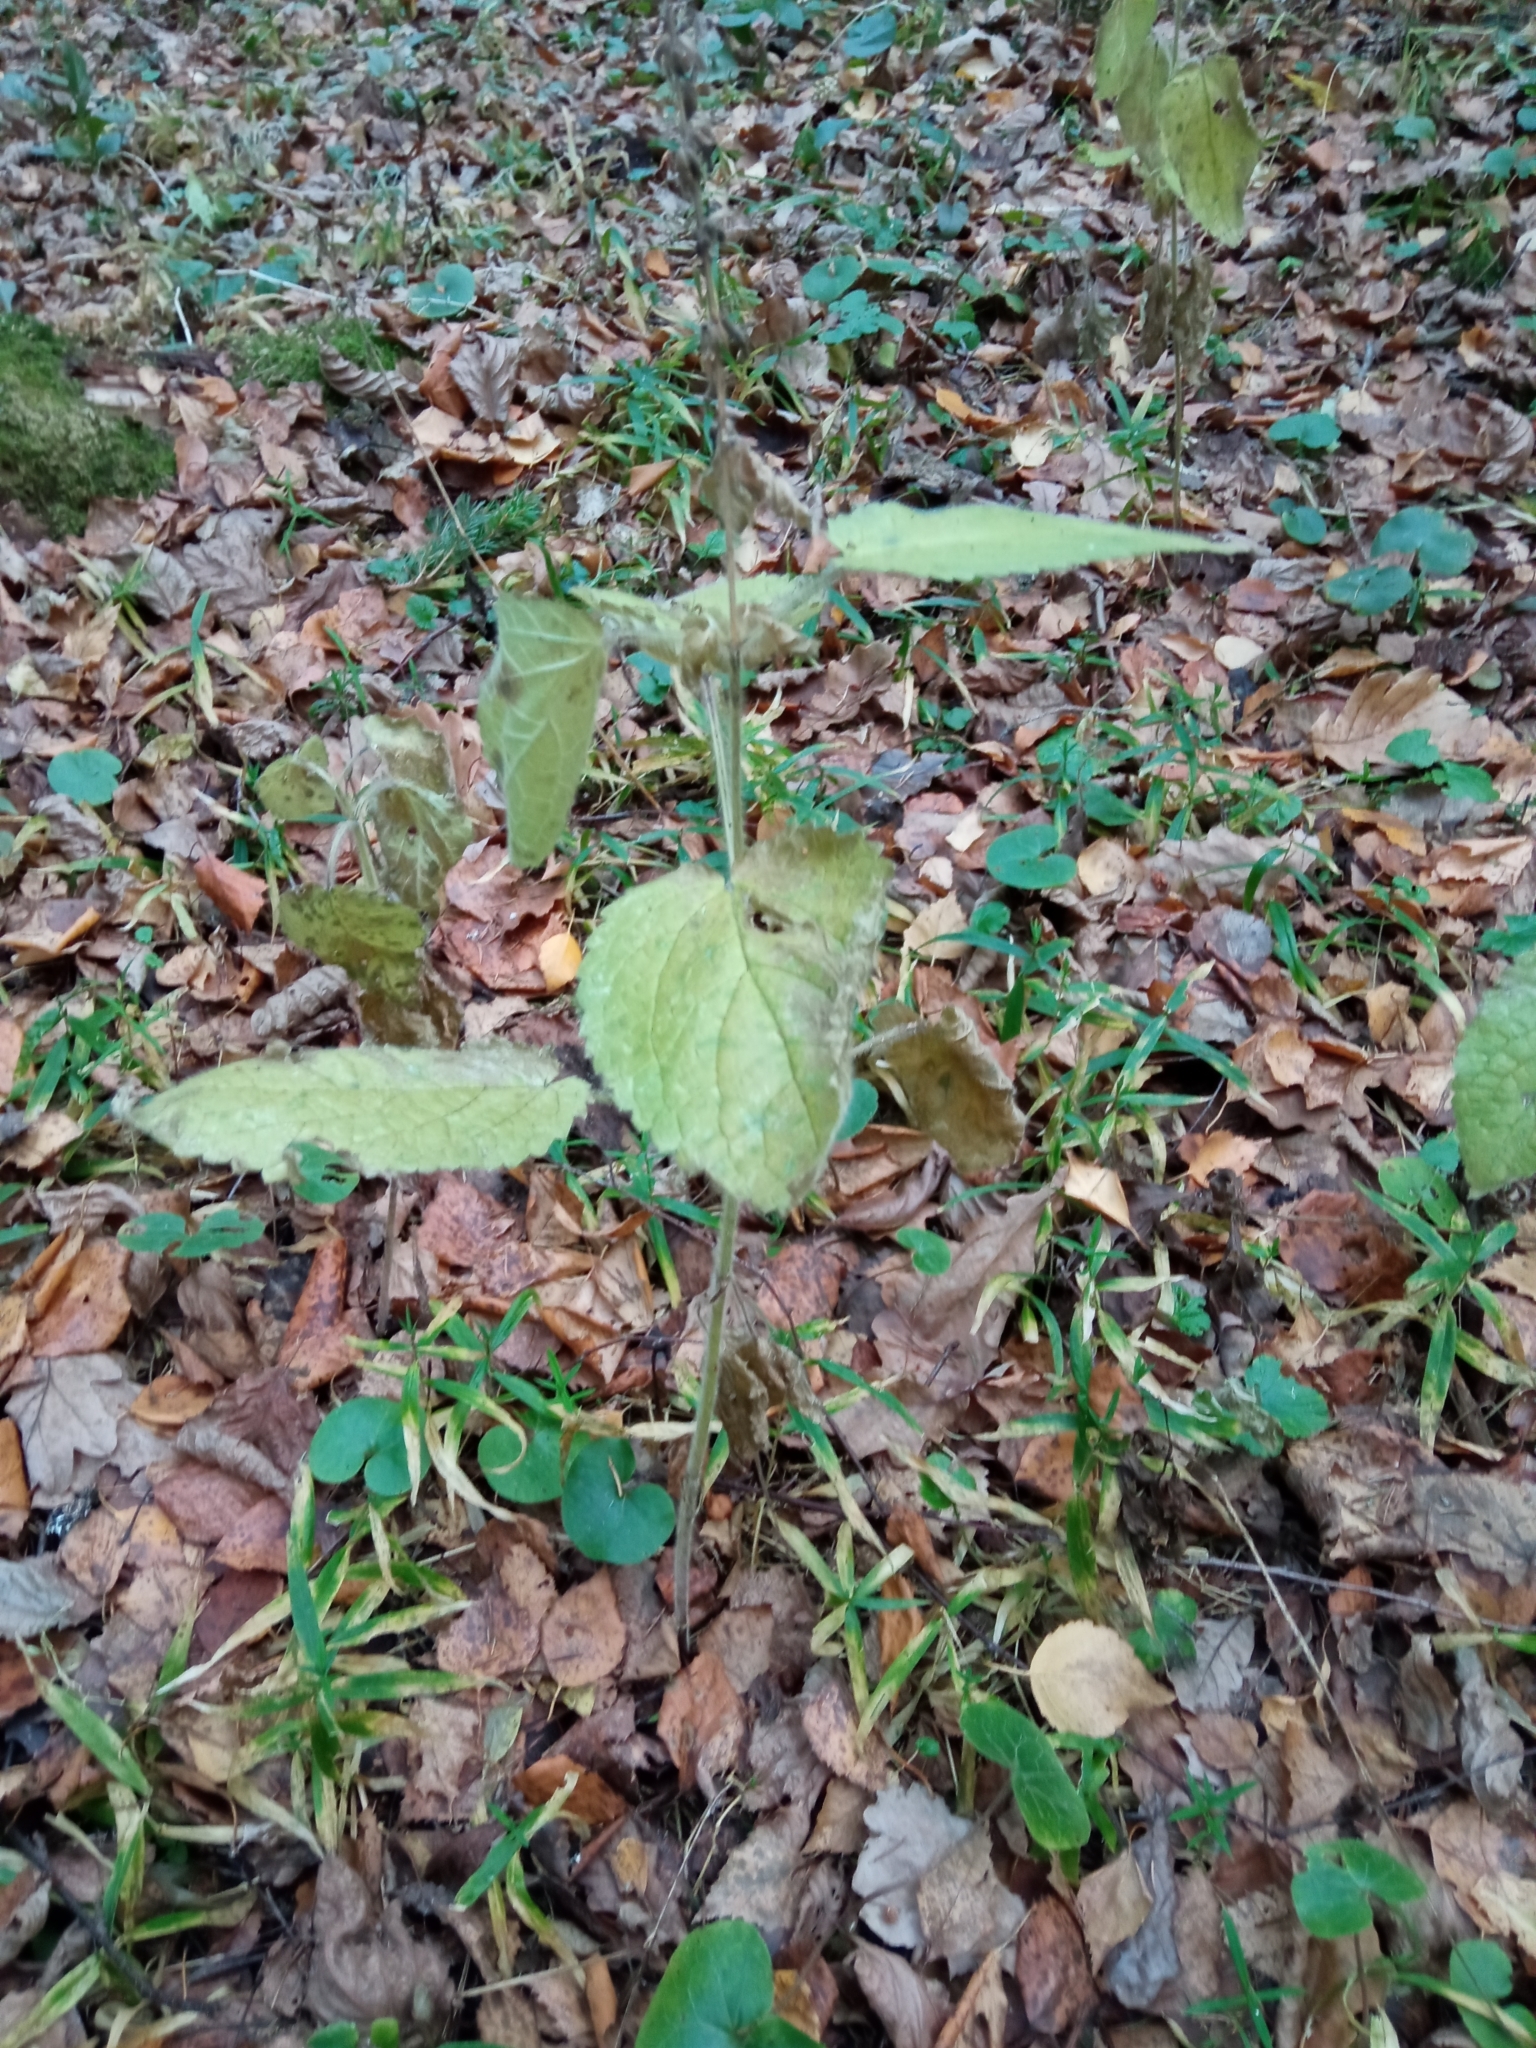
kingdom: Plantae
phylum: Tracheophyta
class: Magnoliopsida
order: Lamiales
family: Lamiaceae
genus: Stachys
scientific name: Stachys sylvatica
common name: Hedge woundwort
